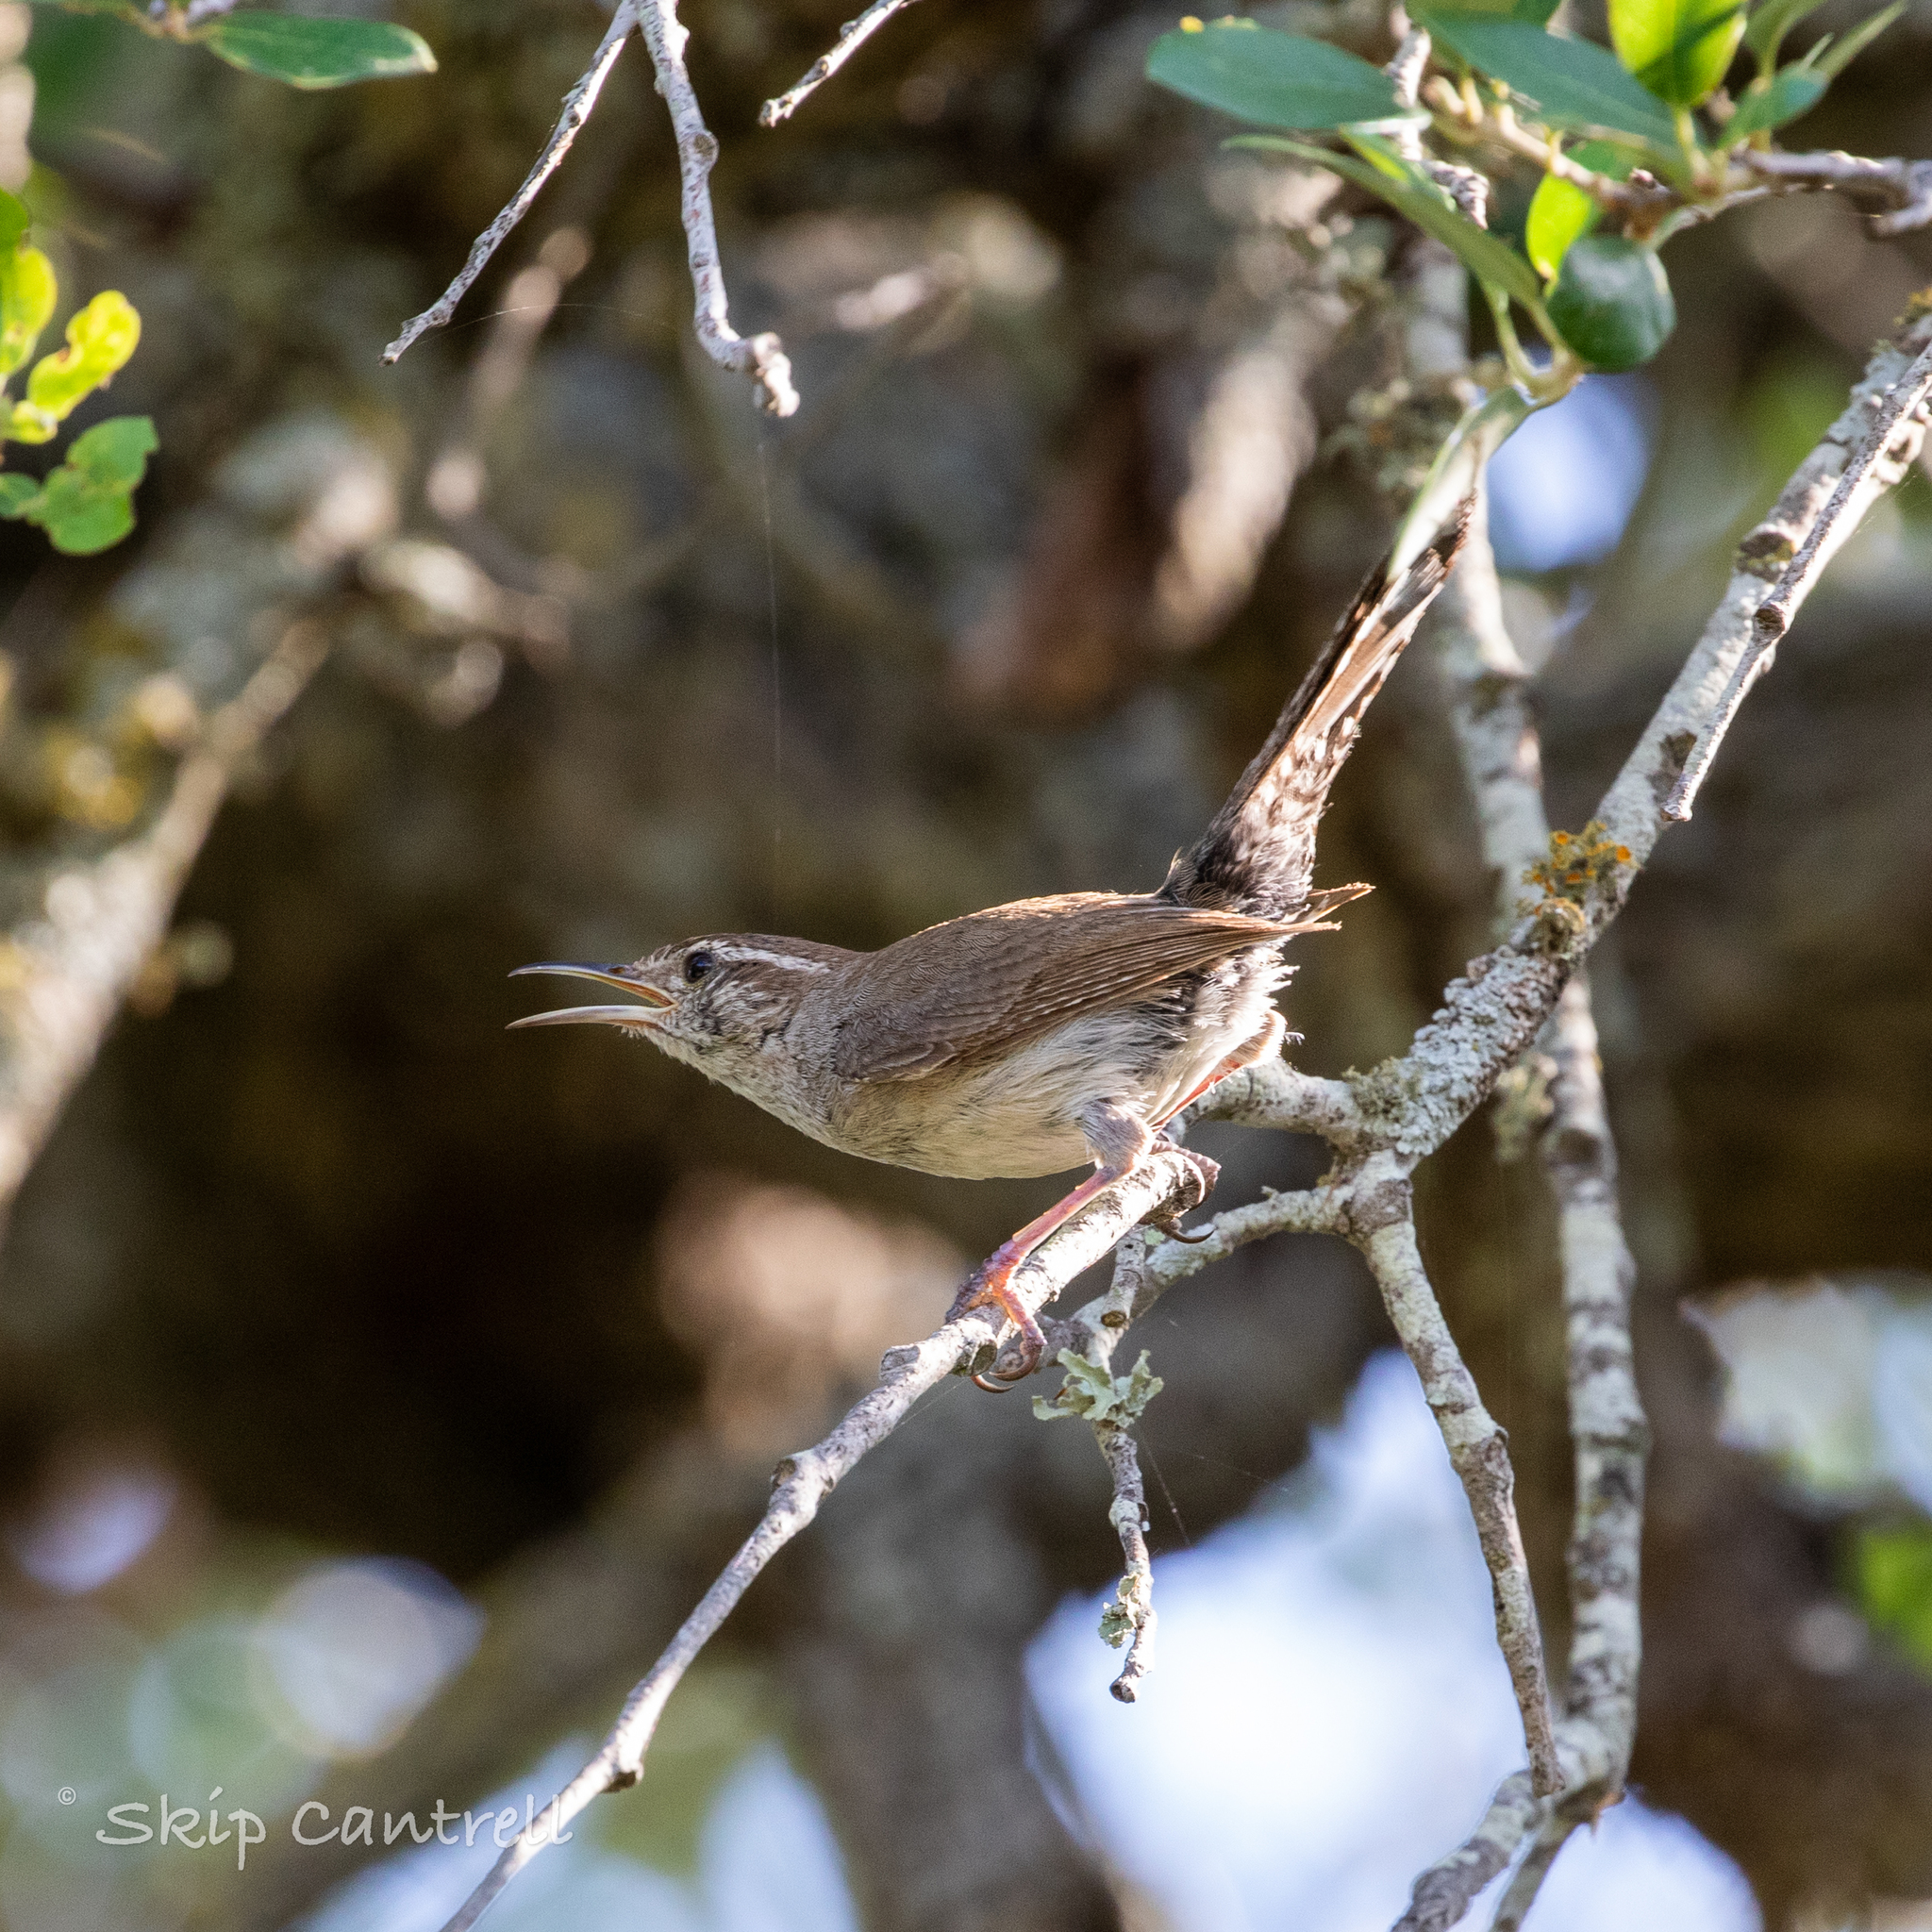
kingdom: Animalia
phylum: Chordata
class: Aves
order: Passeriformes
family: Troglodytidae
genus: Thryomanes
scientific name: Thryomanes bewickii
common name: Bewick's wren
